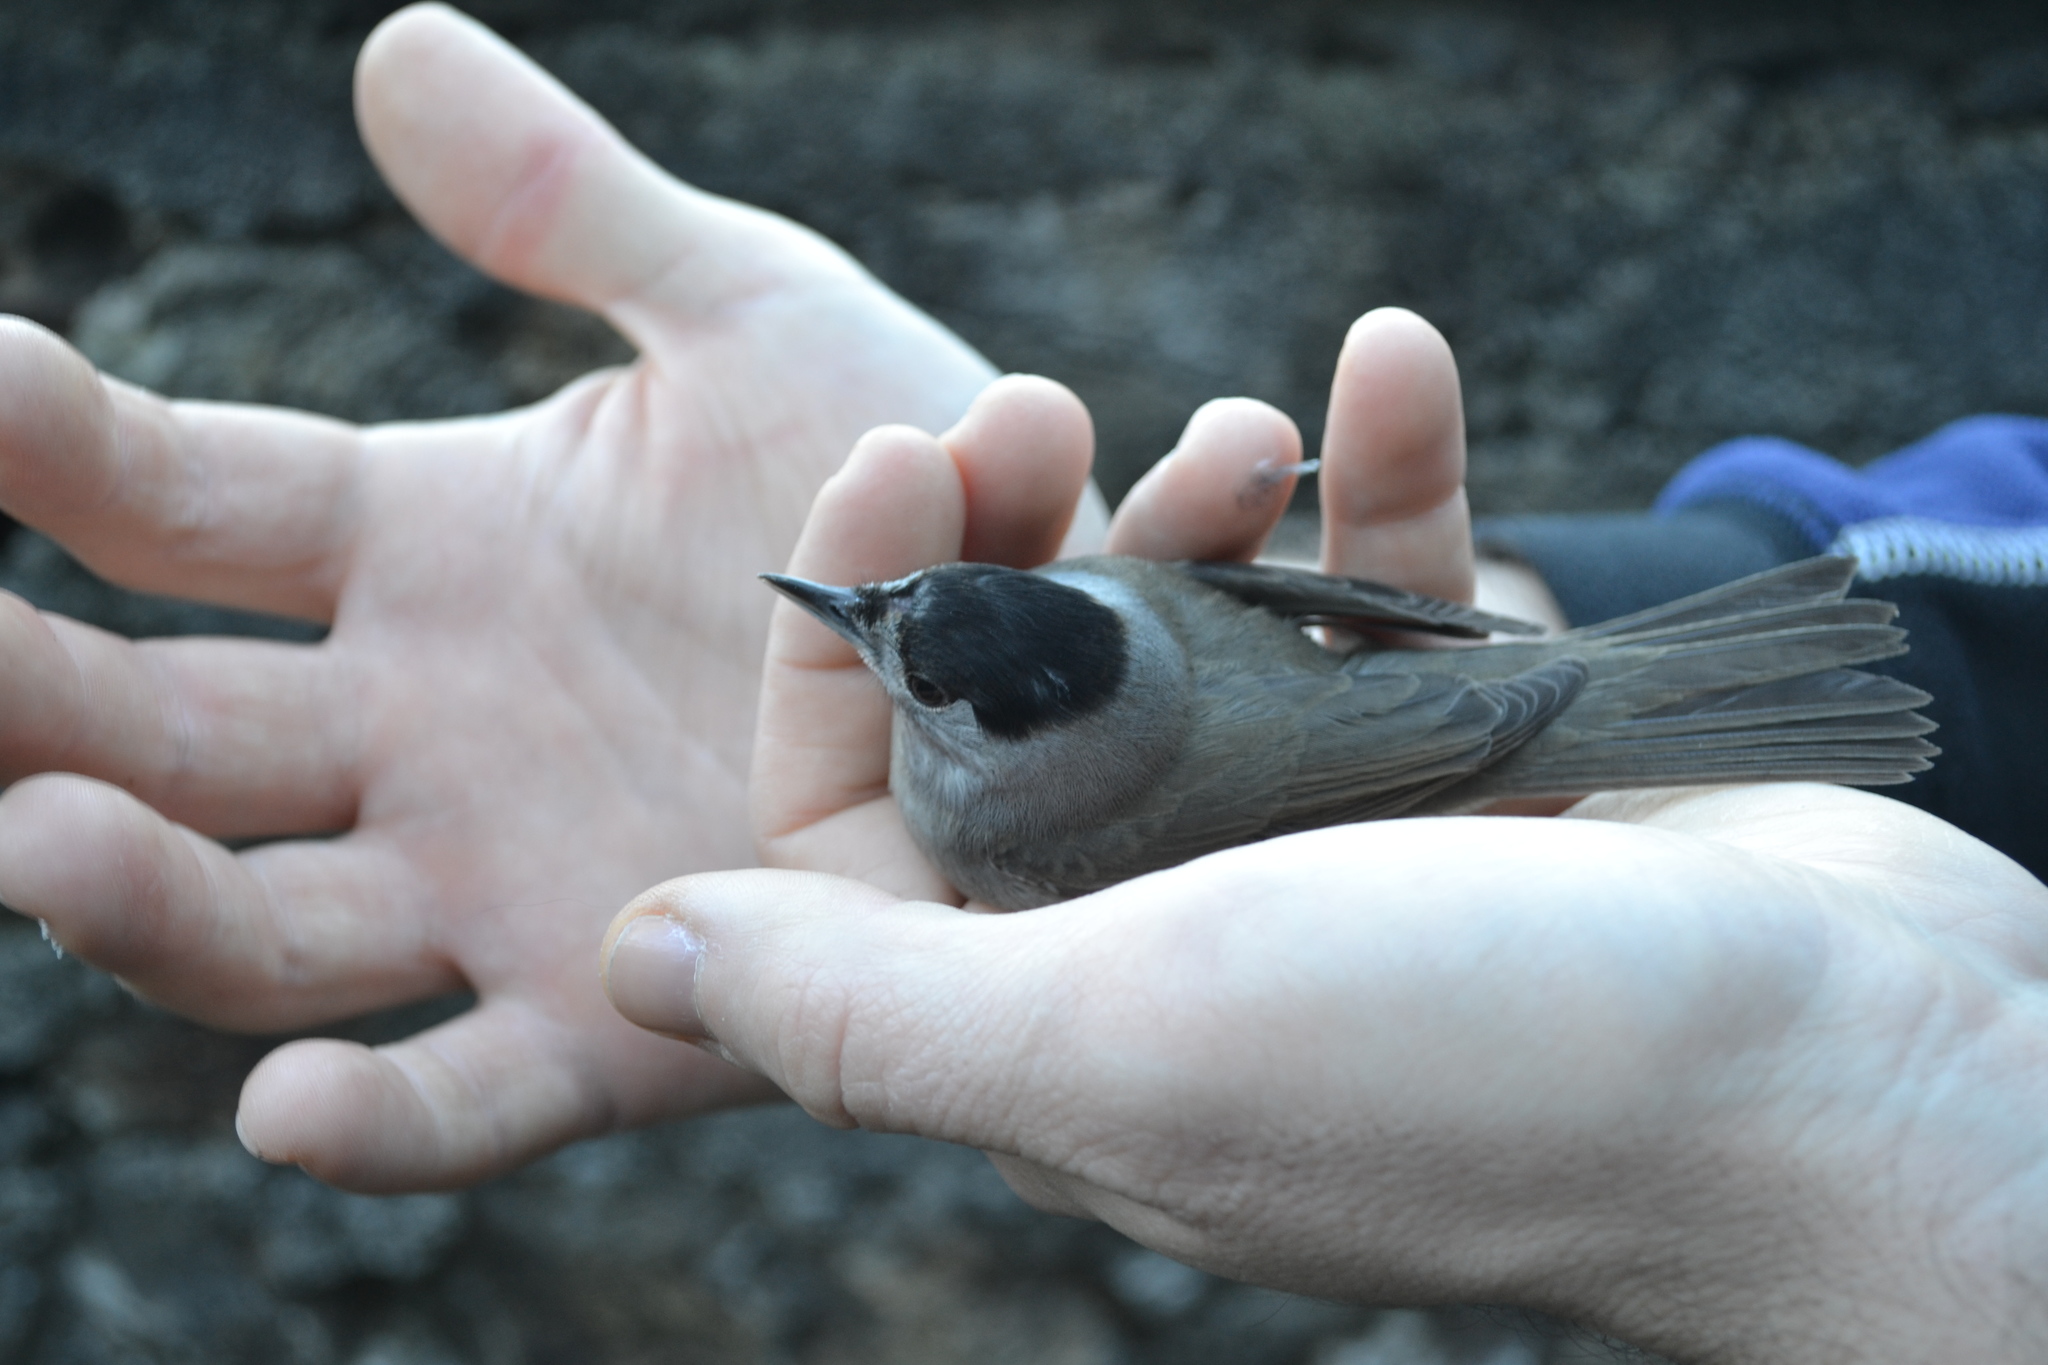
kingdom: Animalia
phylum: Chordata
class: Aves
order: Passeriformes
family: Sylviidae
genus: Sylvia
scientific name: Sylvia atricapilla
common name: Eurasian blackcap
